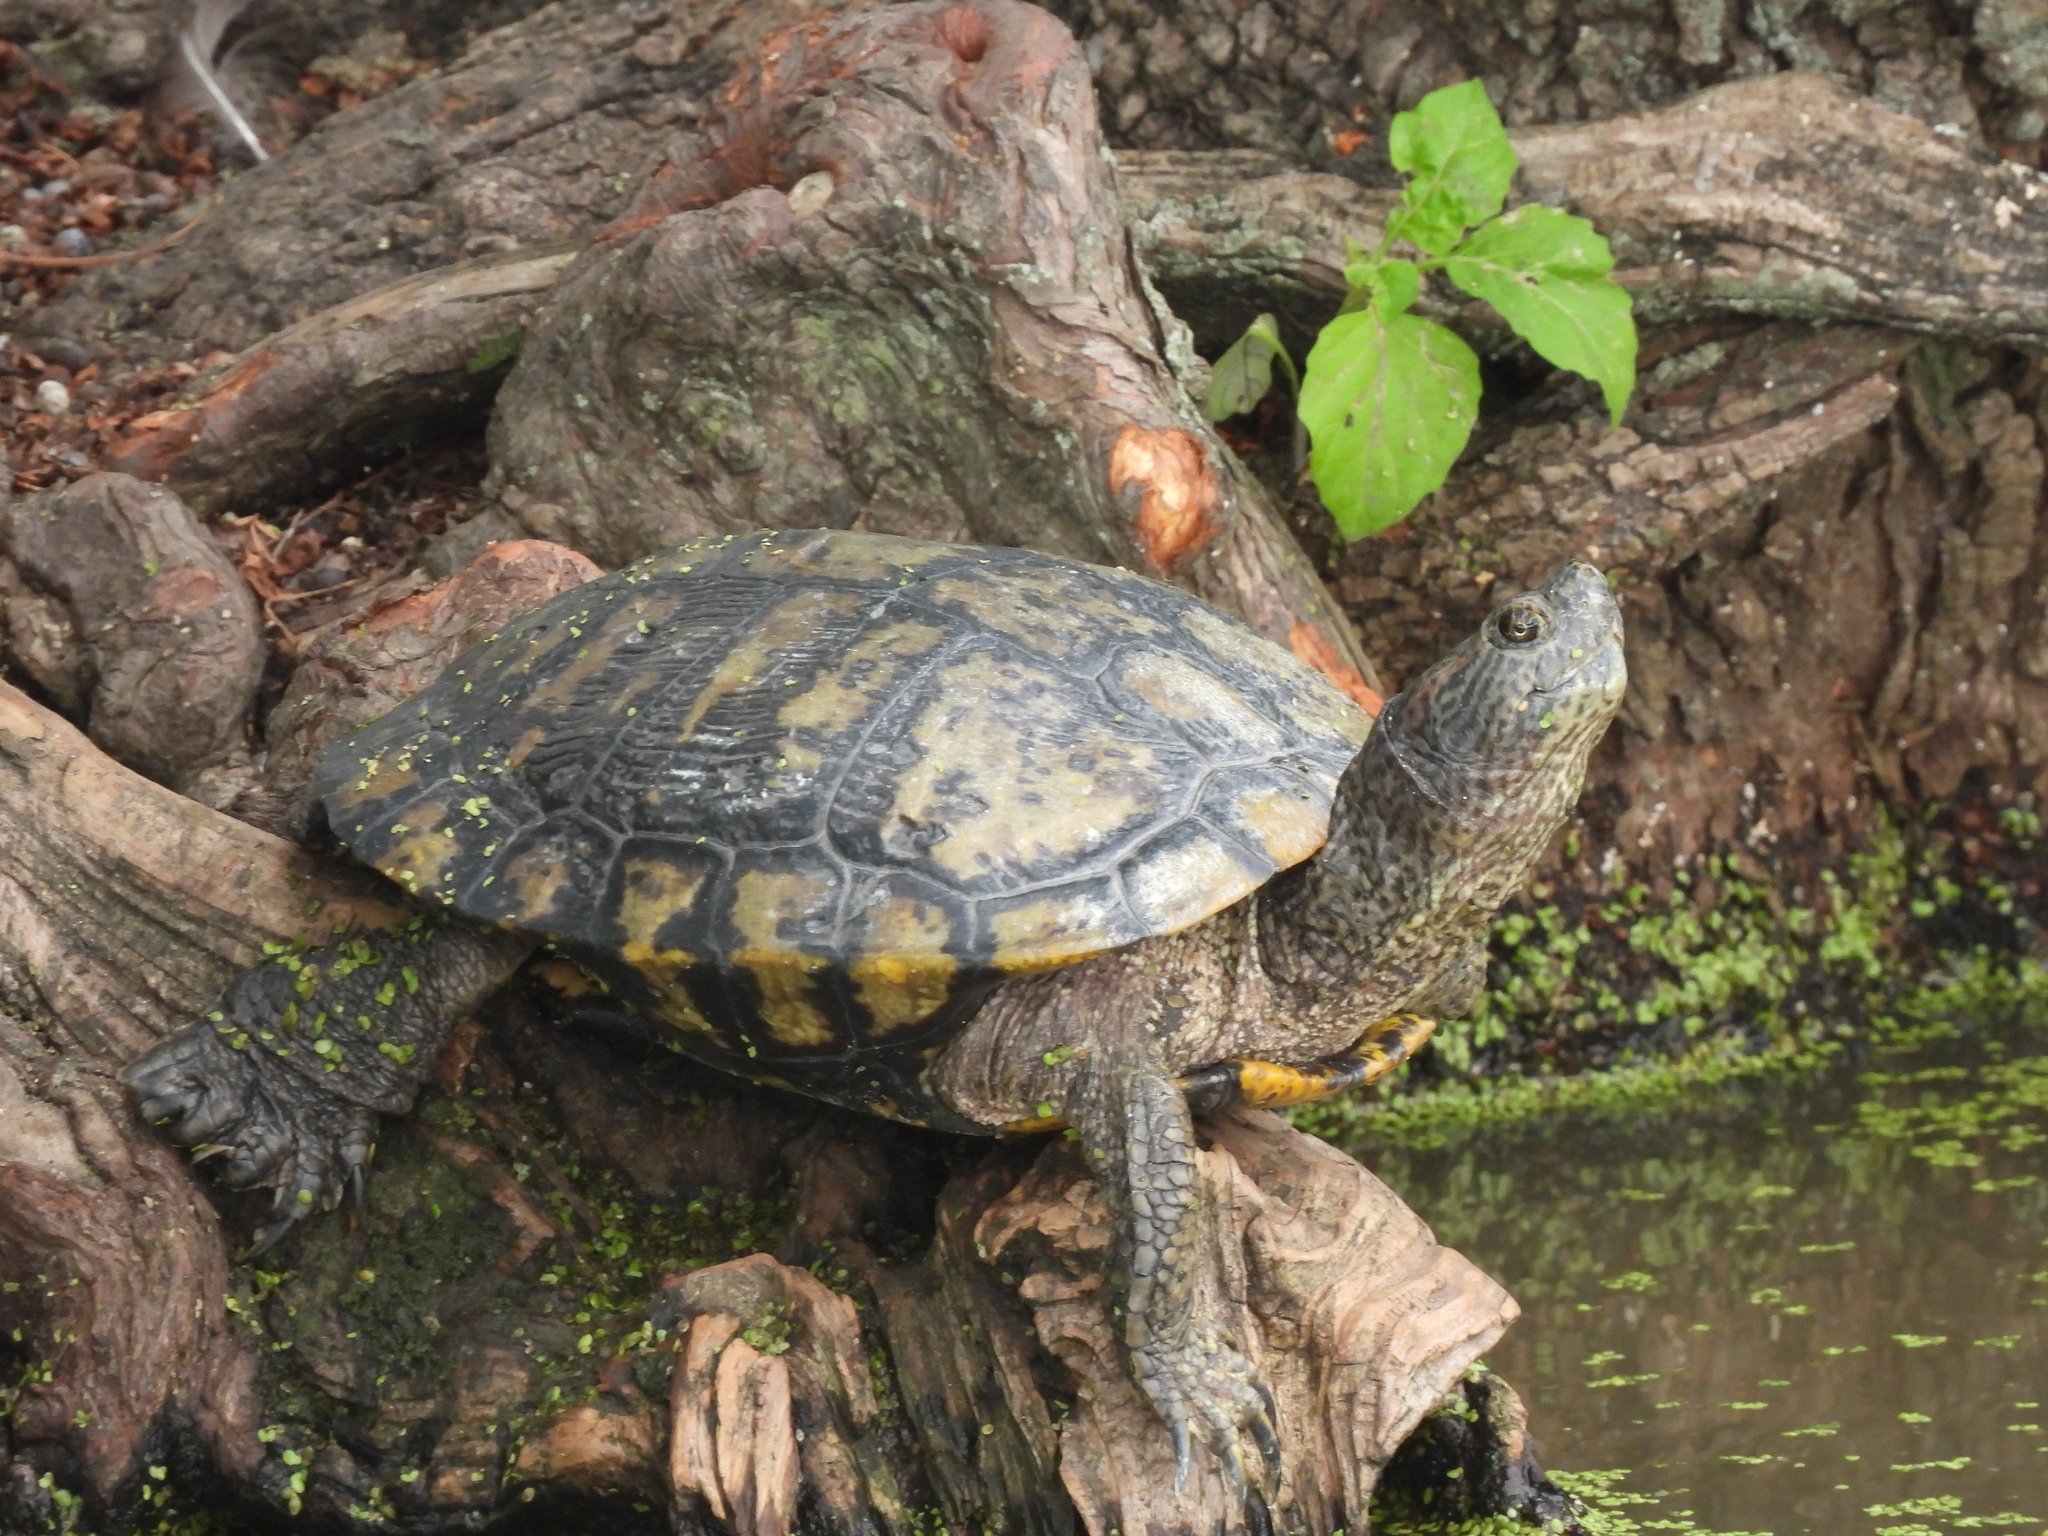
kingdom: Animalia
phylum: Chordata
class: Testudines
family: Emydidae
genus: Trachemys
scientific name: Trachemys scripta
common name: Slider
